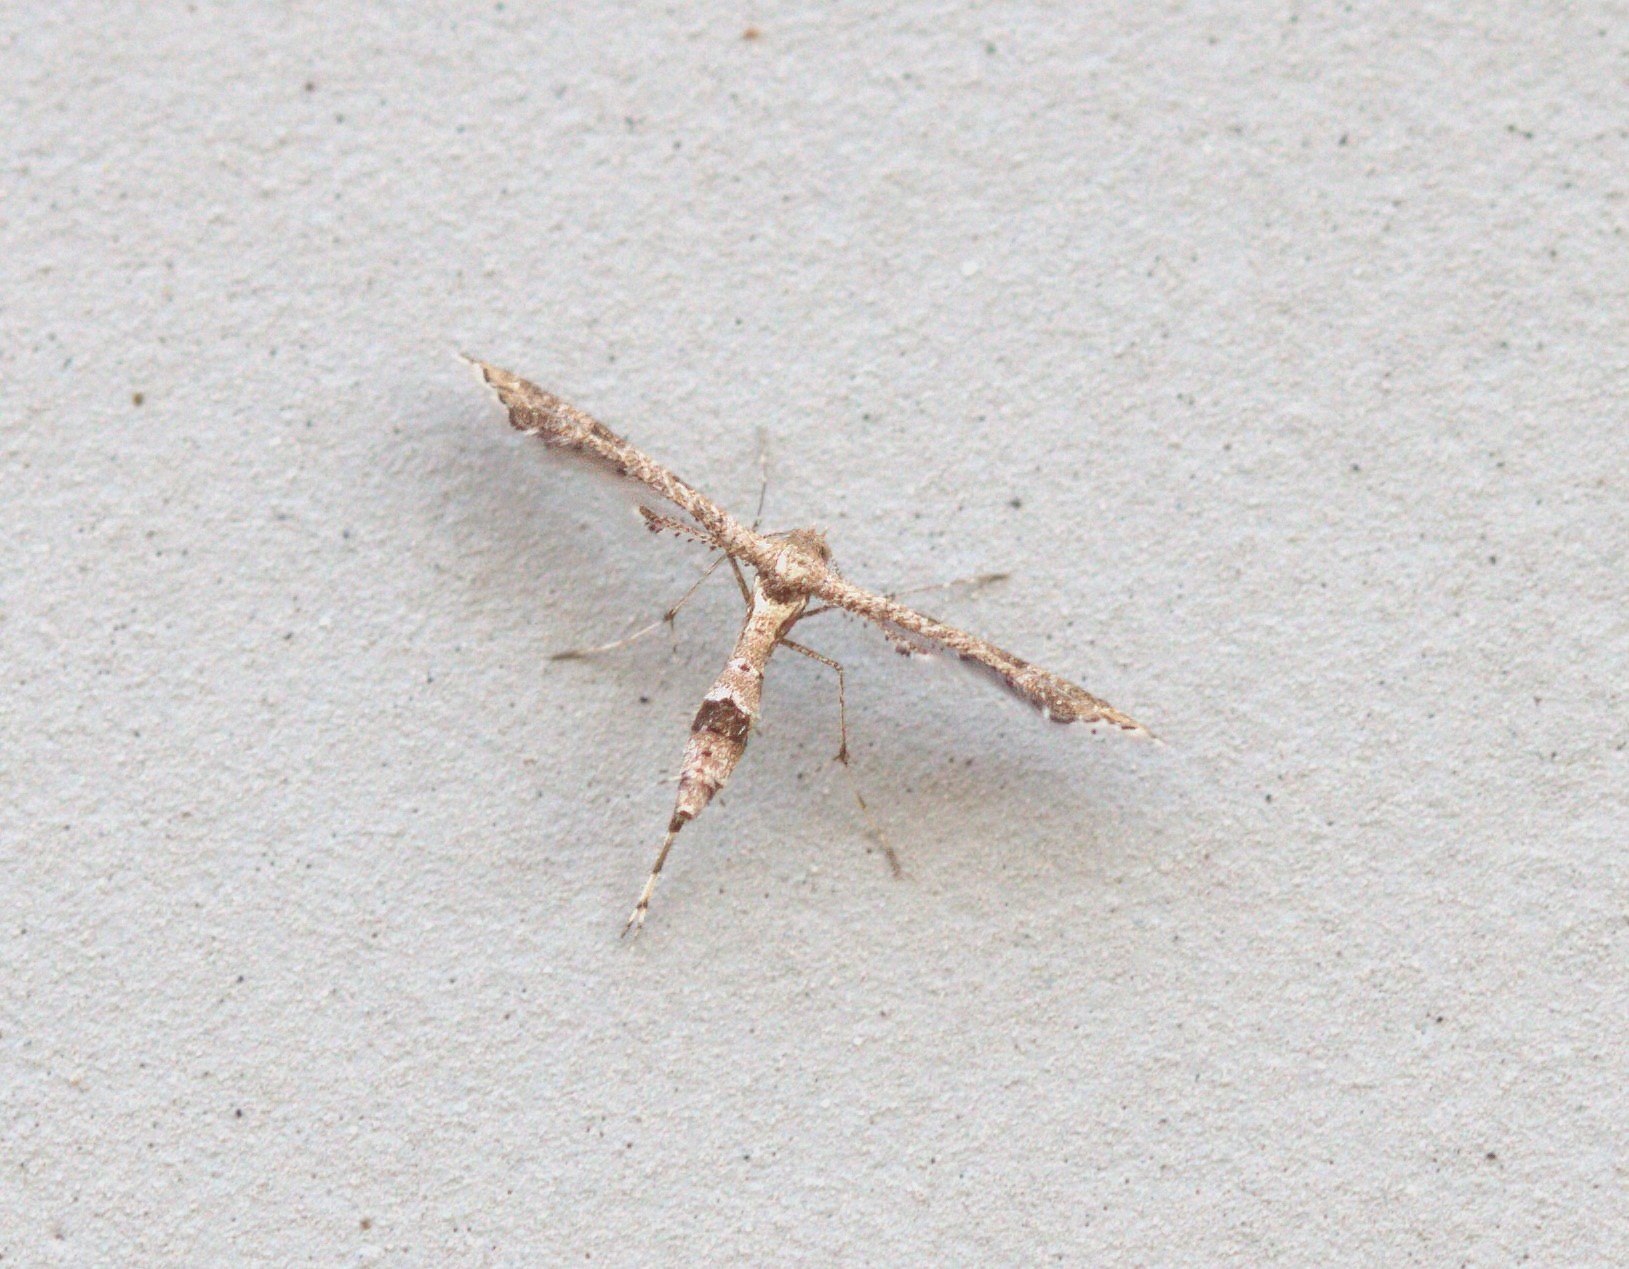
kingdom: Animalia
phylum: Arthropoda
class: Insecta
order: Lepidoptera
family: Pterophoridae
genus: Lantanophaga
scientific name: Lantanophaga pusillidactylus
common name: Moth
